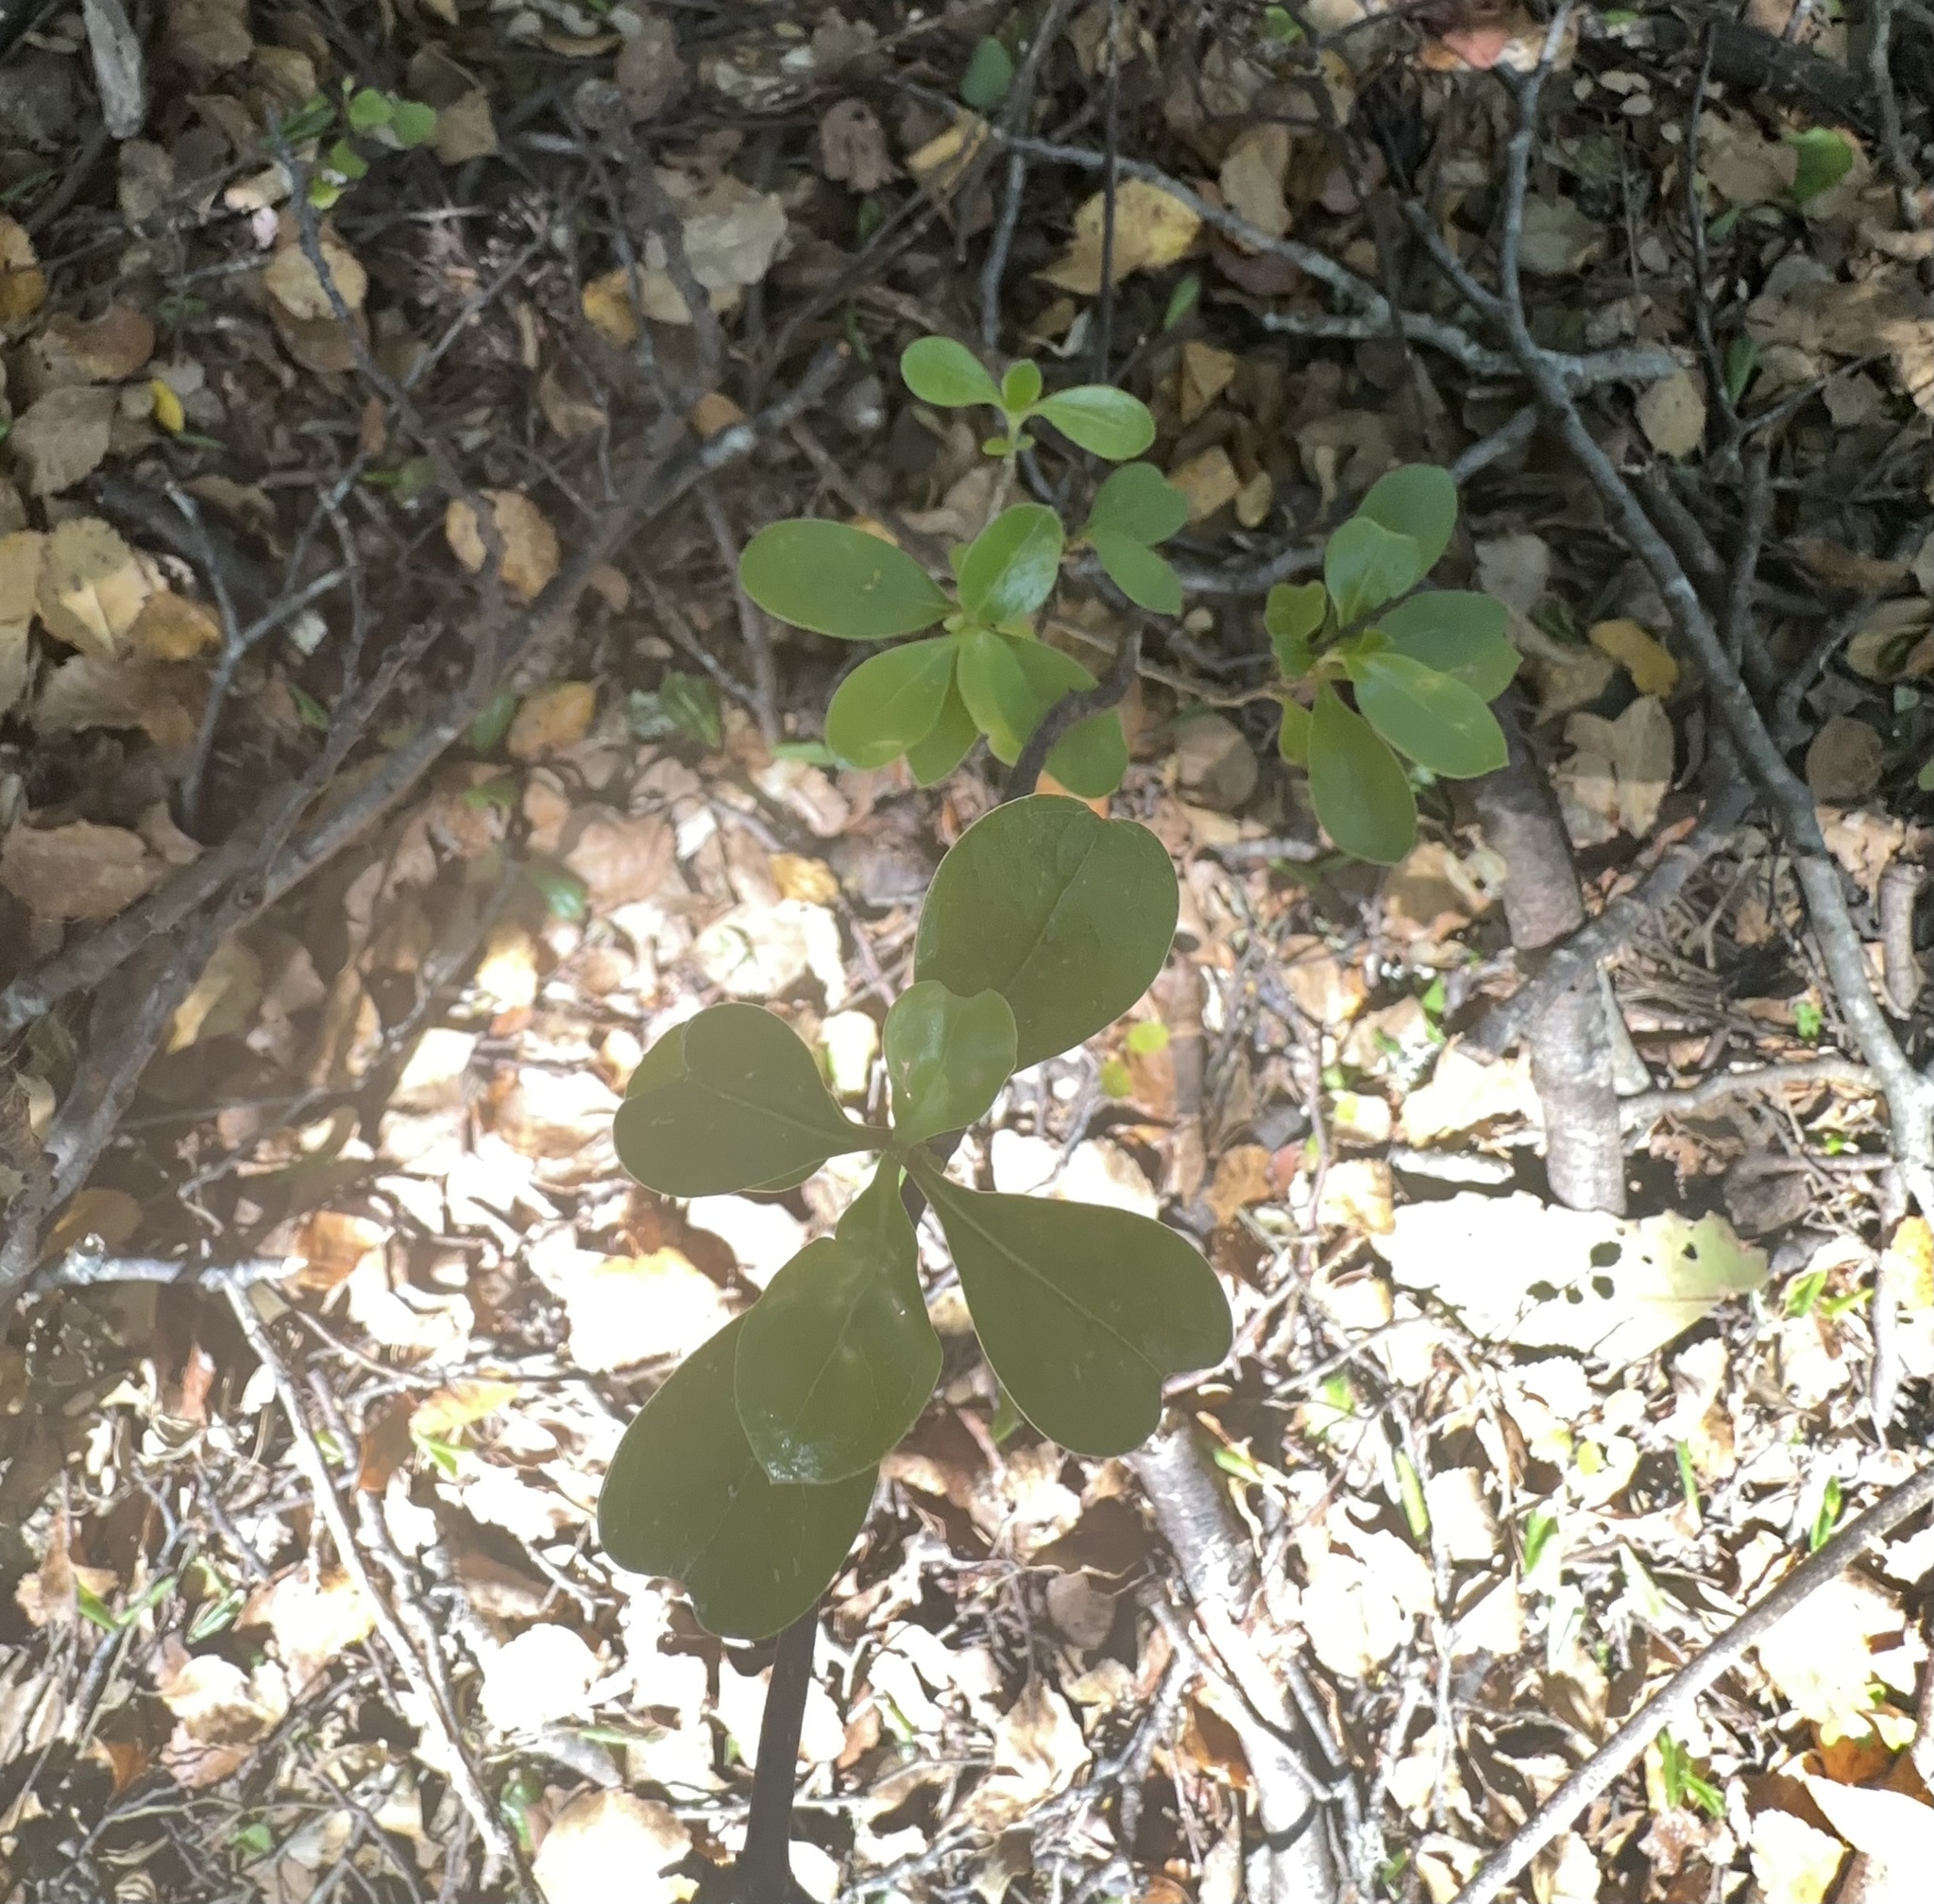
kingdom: Plantae
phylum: Tracheophyta
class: Magnoliopsida
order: Gentianales
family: Rubiaceae
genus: Coprosma
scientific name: Coprosma lucida
